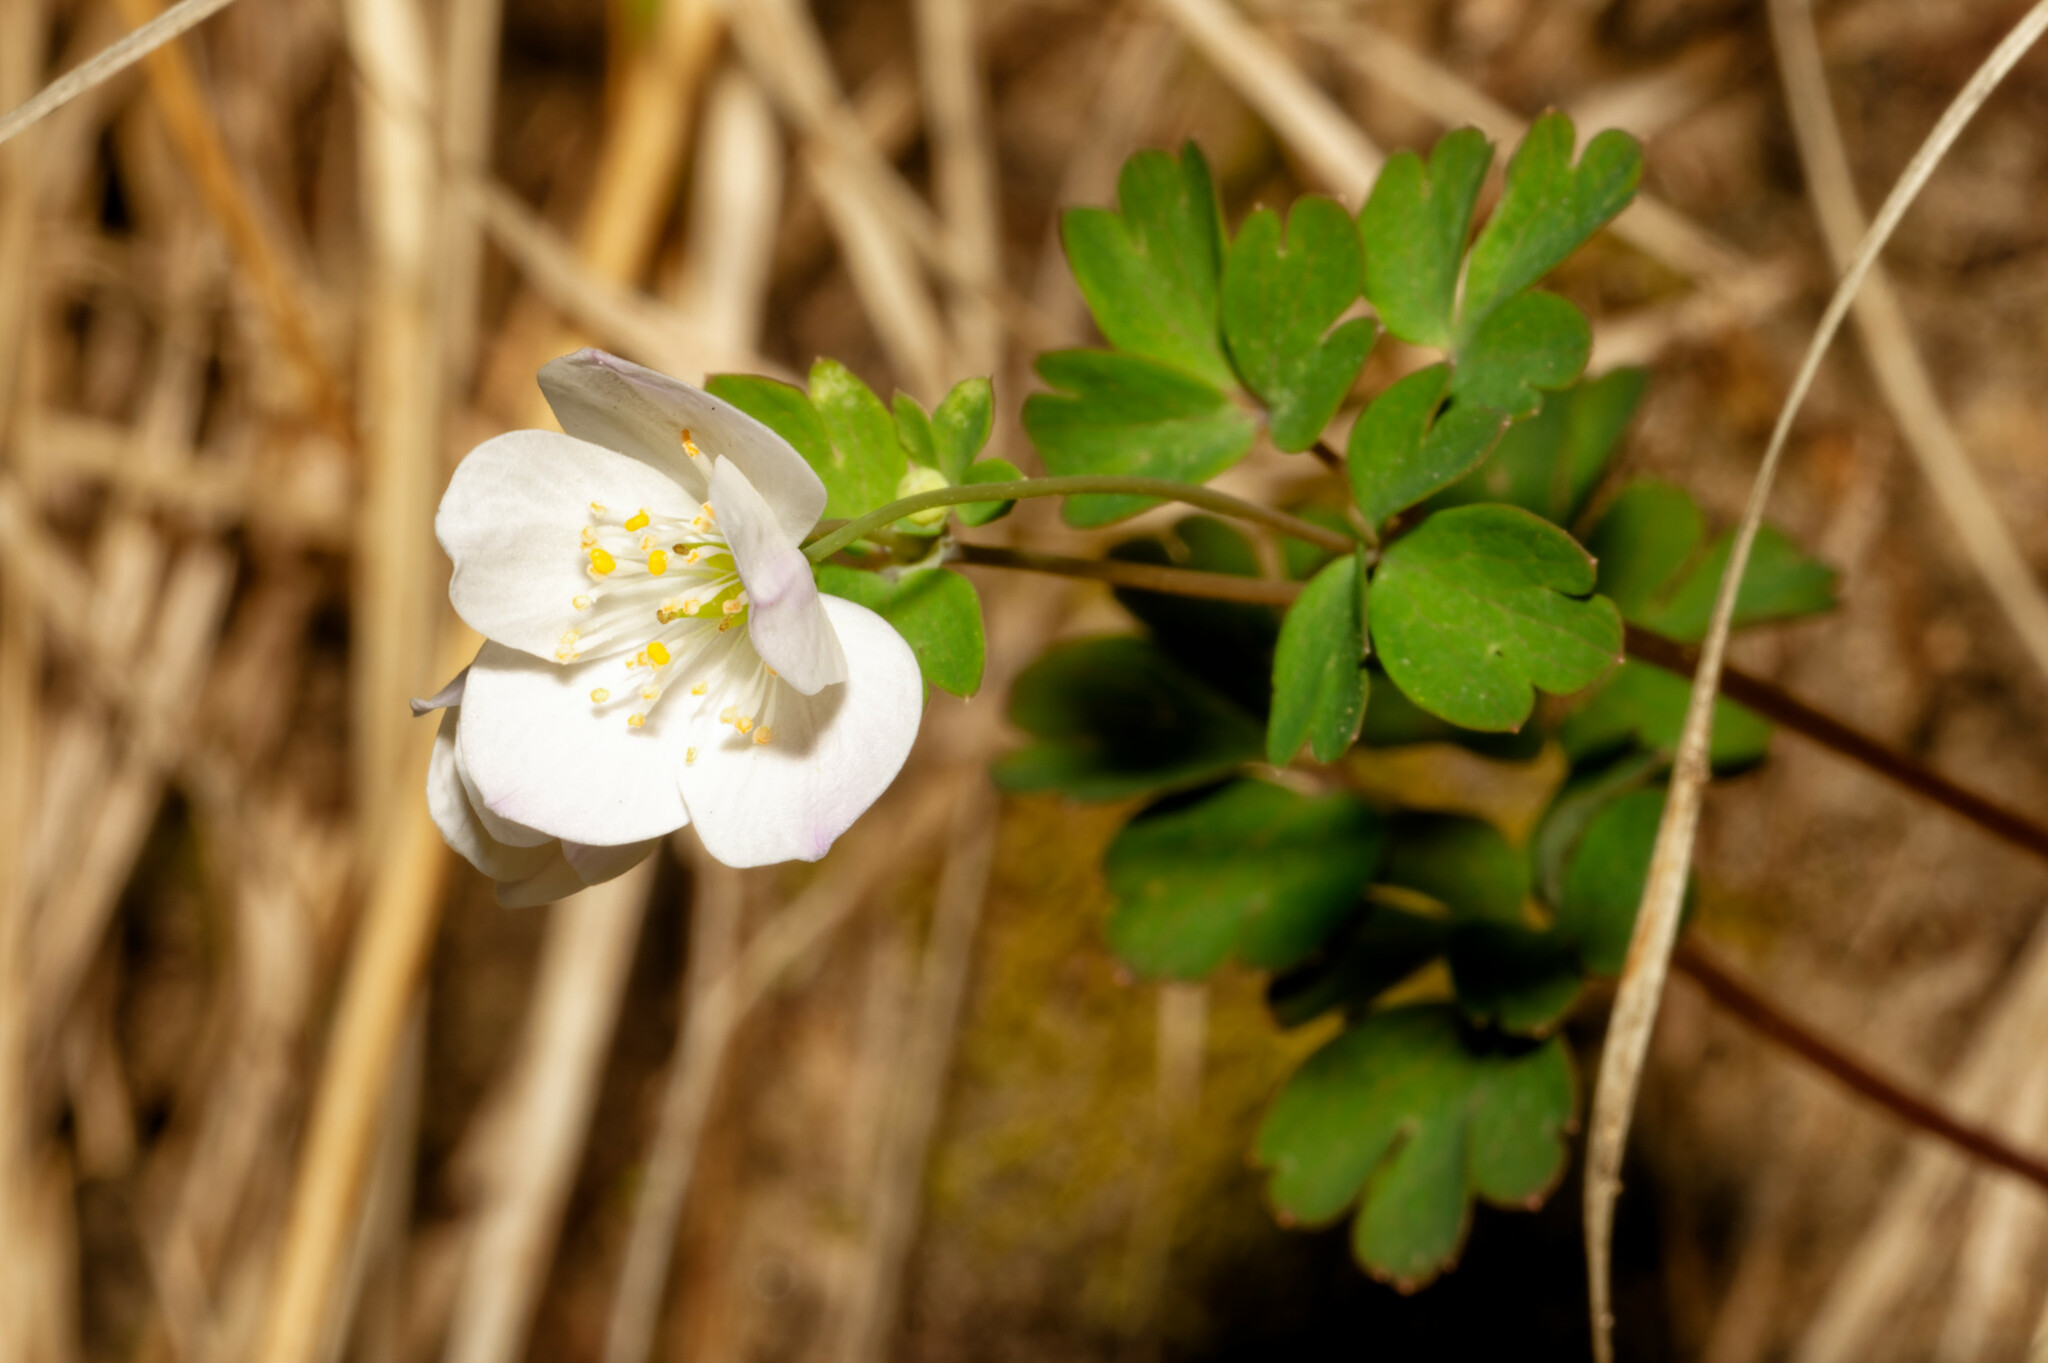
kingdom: Plantae
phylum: Tracheophyta
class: Magnoliopsida
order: Ranunculales
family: Ranunculaceae
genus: Enemion
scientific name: Enemion biternatum
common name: Eastern false rue-anemone
